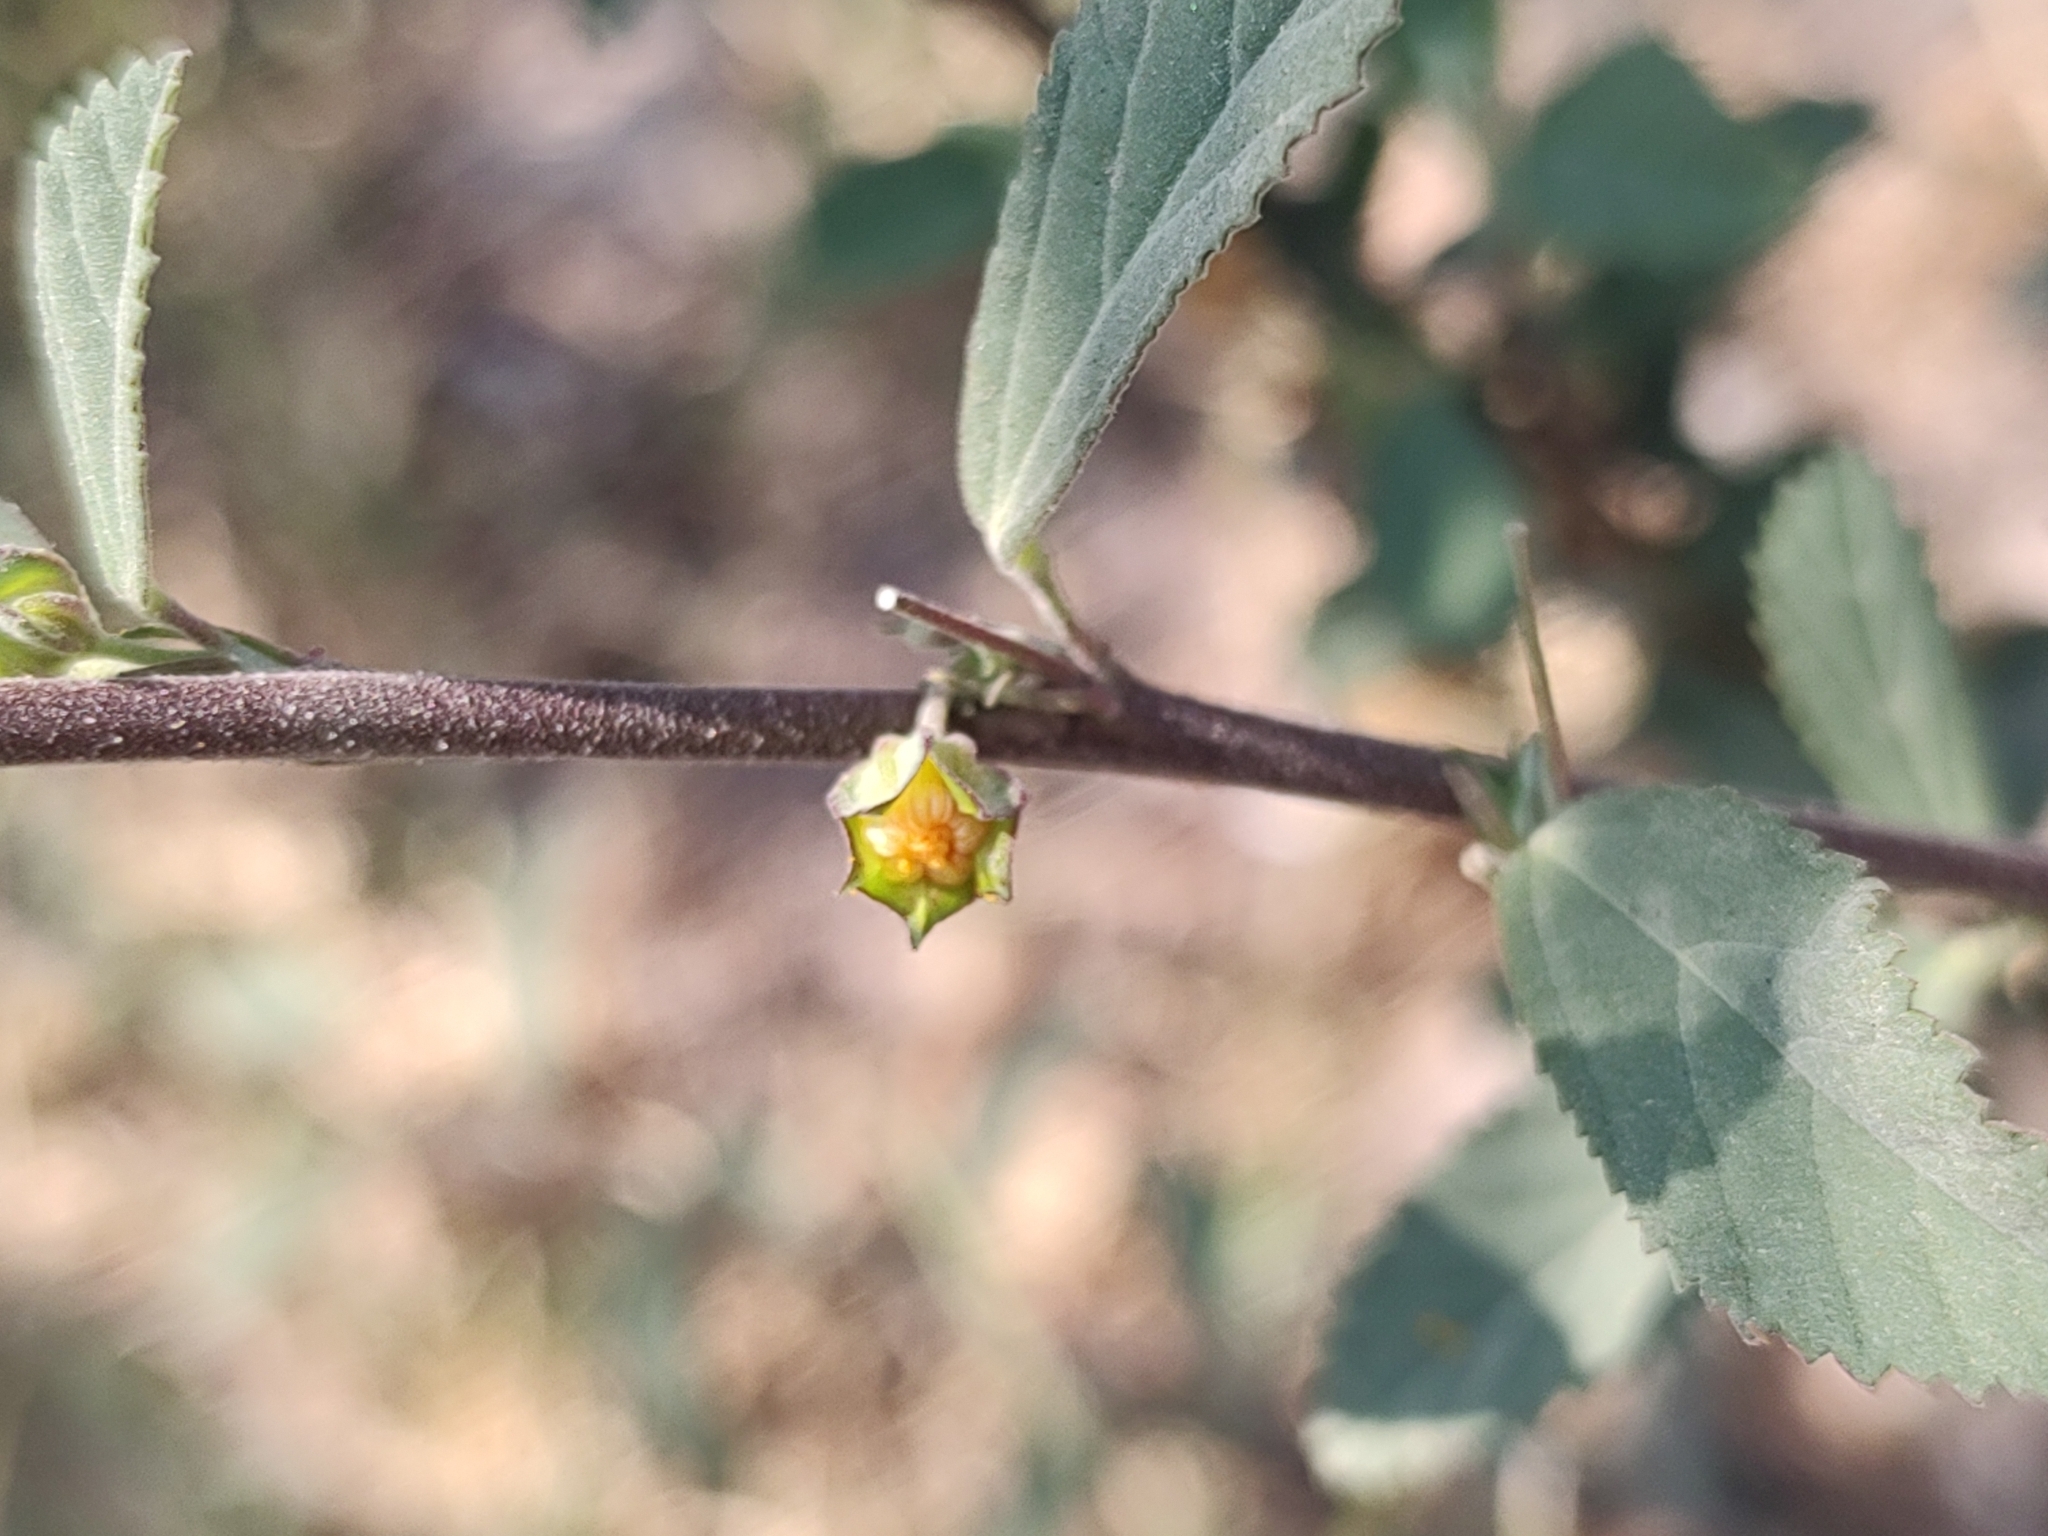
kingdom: Plantae
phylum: Tracheophyta
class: Magnoliopsida
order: Malvales
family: Malvaceae
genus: Sida
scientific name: Sida rhombifolia
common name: Queensland-hemp
